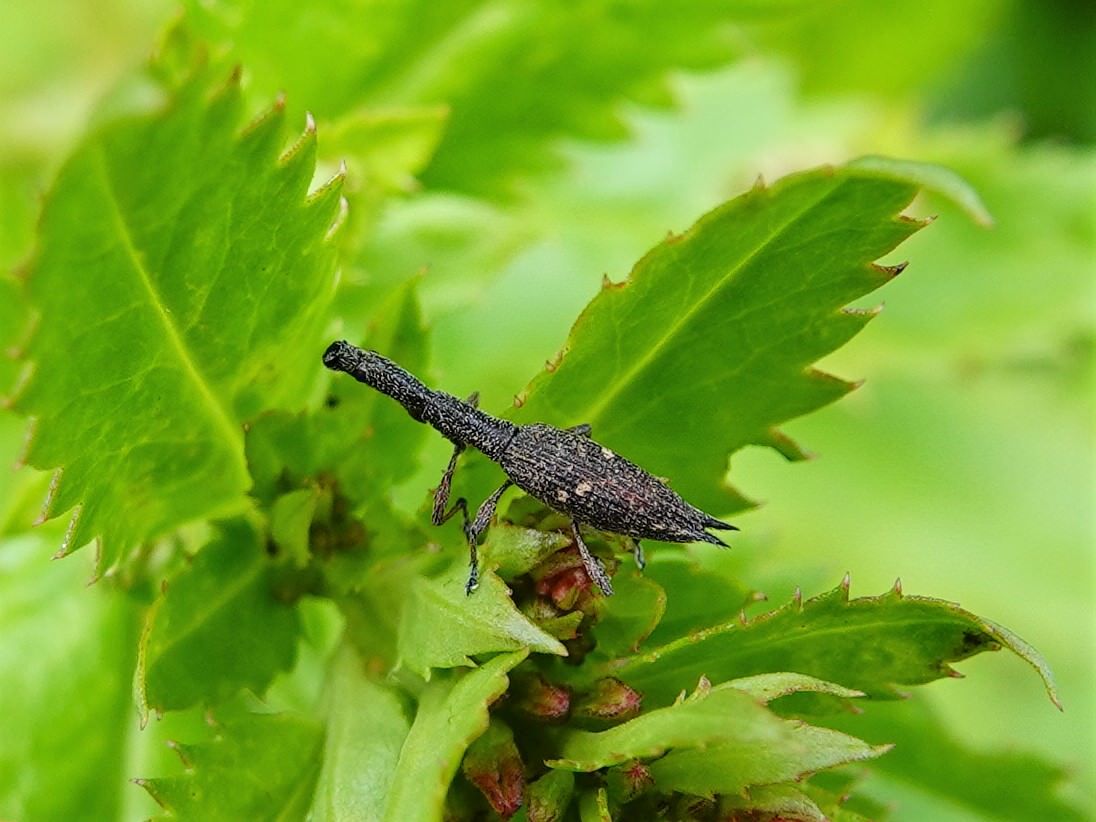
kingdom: Animalia
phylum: Arthropoda
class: Insecta
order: Coleoptera
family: Curculionidae
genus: Rhadinosomus
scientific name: Rhadinosomus acuminatus
